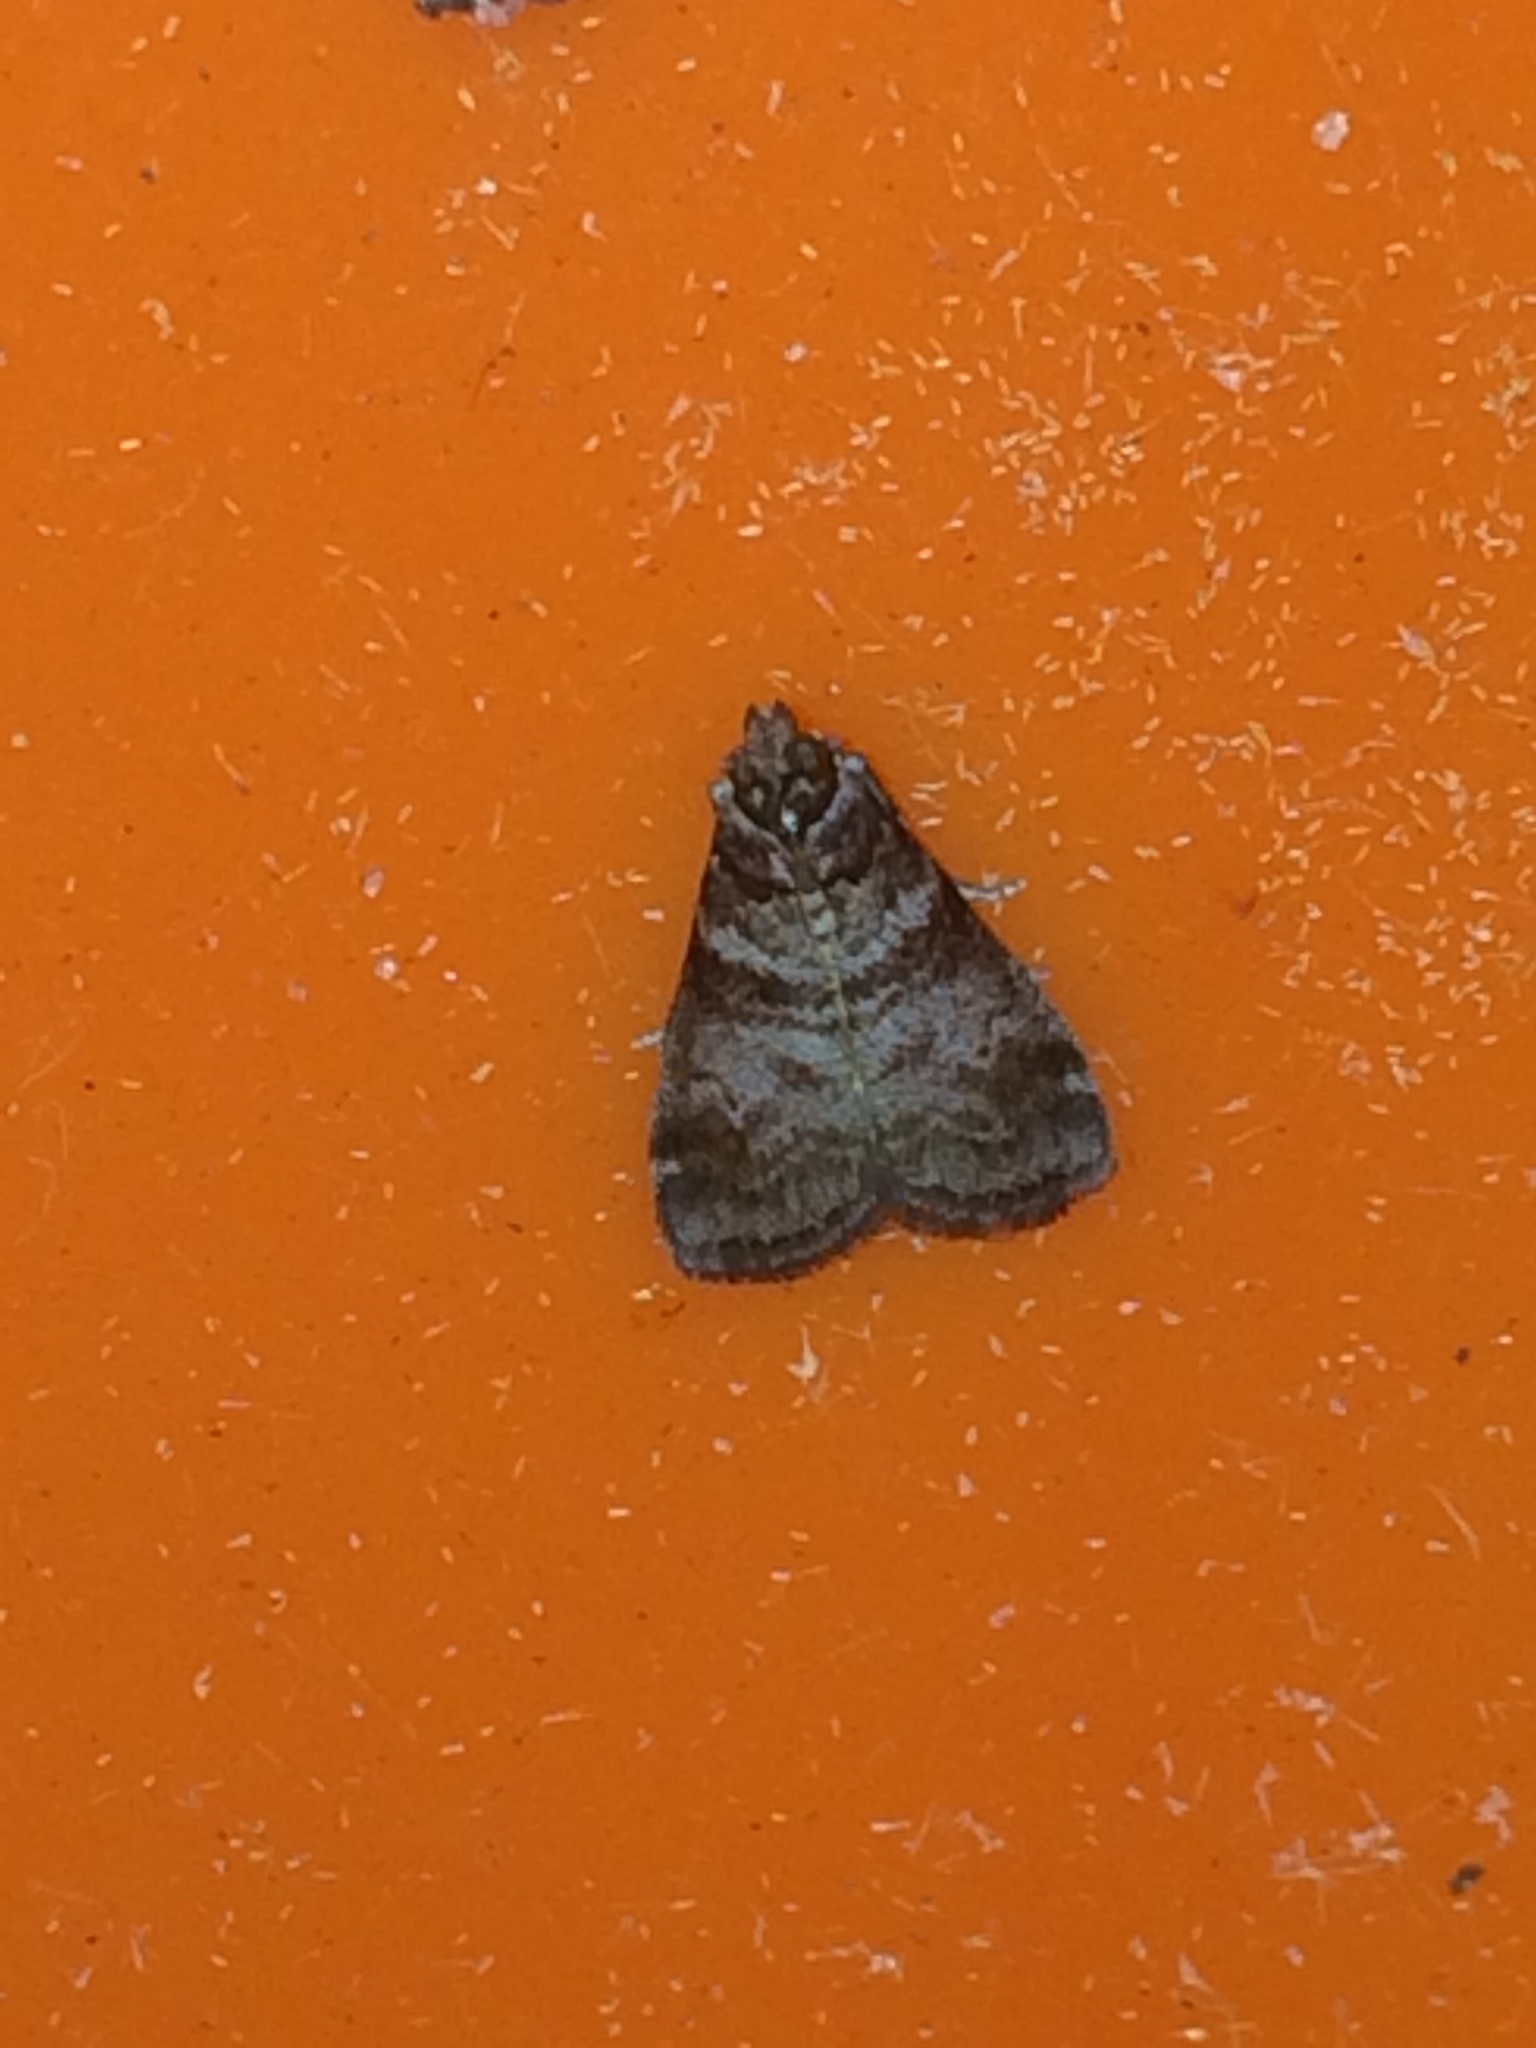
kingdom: Animalia
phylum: Arthropoda
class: Insecta
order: Lepidoptera
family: Pyralidae
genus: Sciota
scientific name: Sciota uvinella
